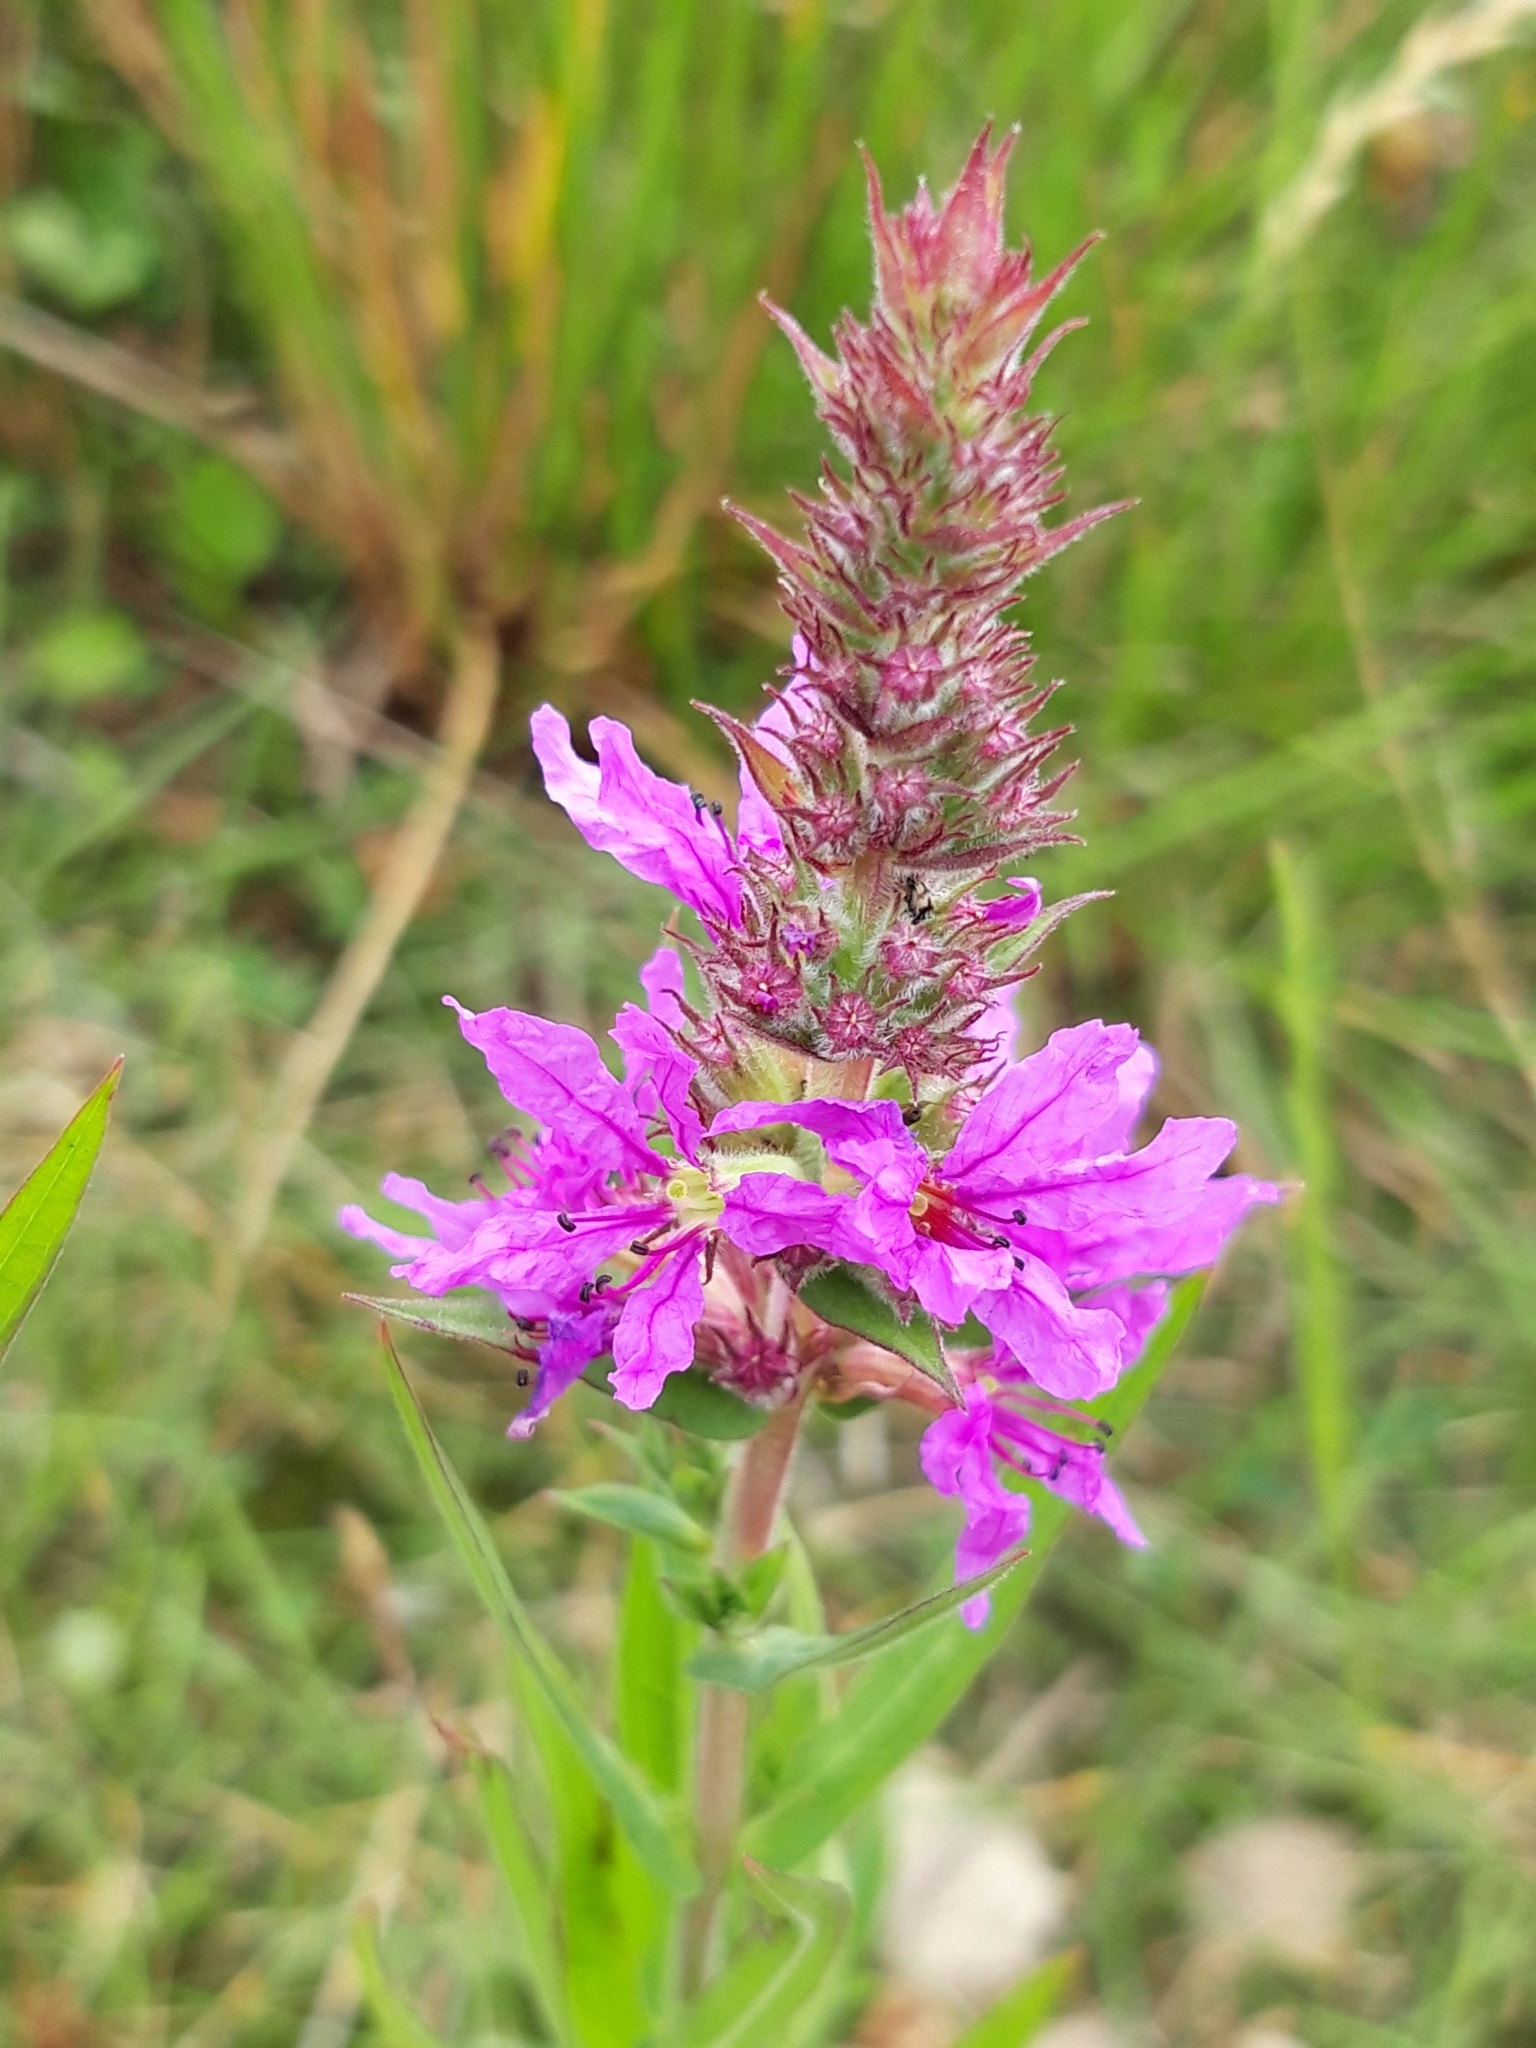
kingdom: Plantae
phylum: Tracheophyta
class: Magnoliopsida
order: Myrtales
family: Lythraceae
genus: Lythrum
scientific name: Lythrum salicaria
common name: Purple loosestrife
